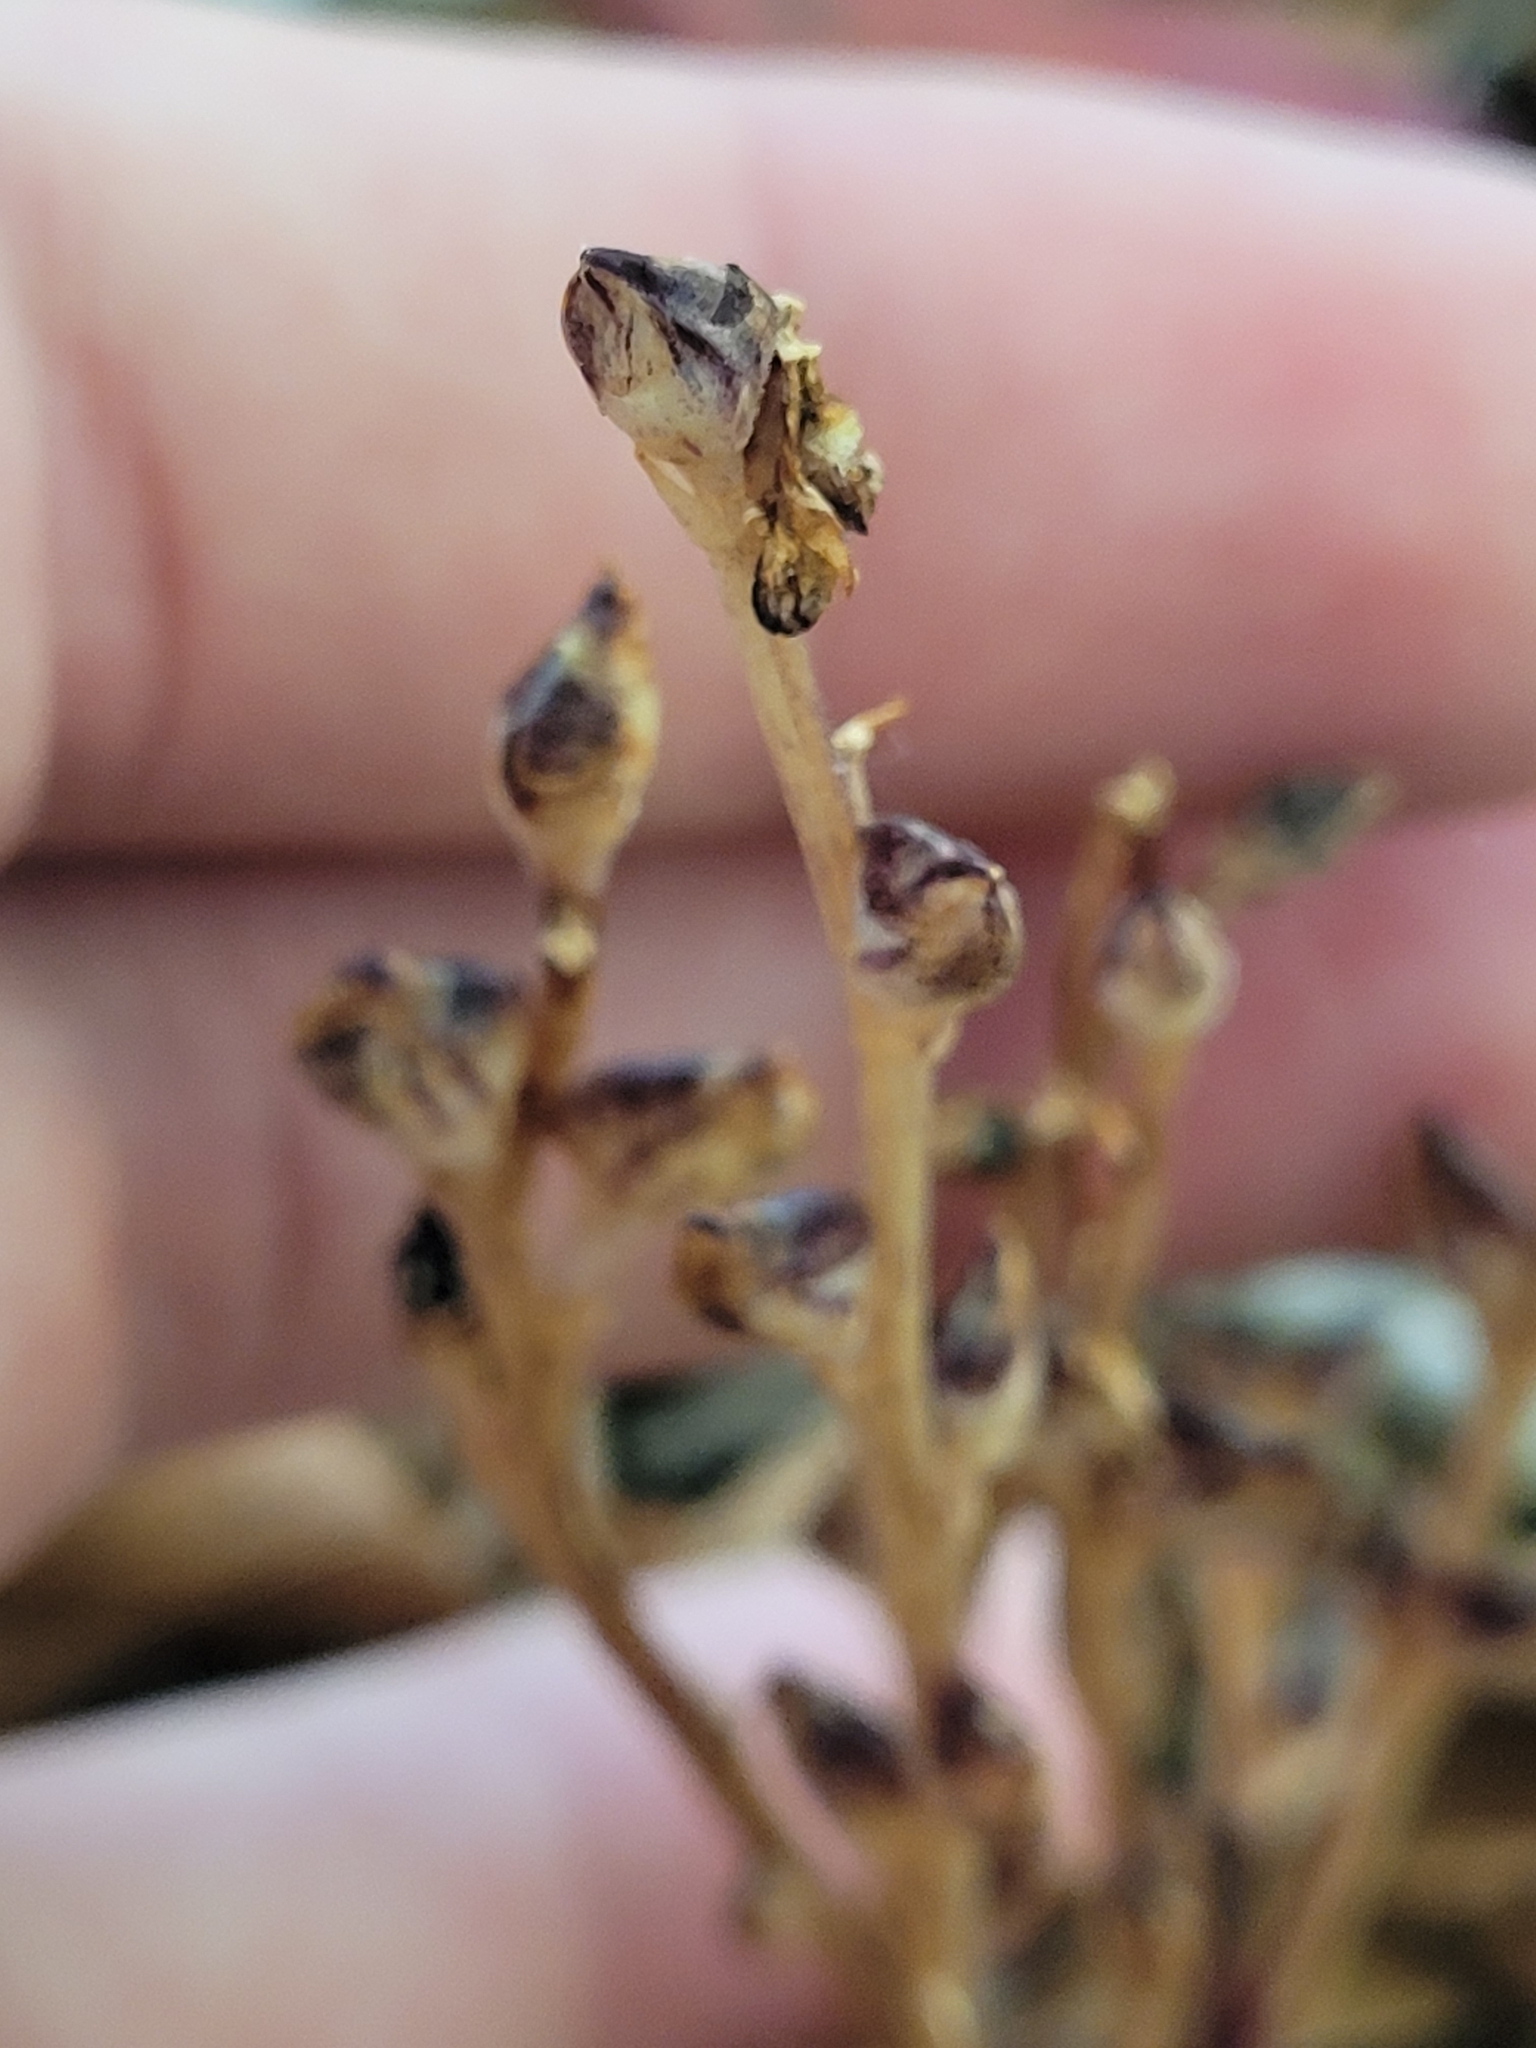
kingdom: Plantae
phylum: Tracheophyta
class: Magnoliopsida
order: Lamiales
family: Orobanchaceae
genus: Epifagus
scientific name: Epifagus virginiana
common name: Beechdrops
